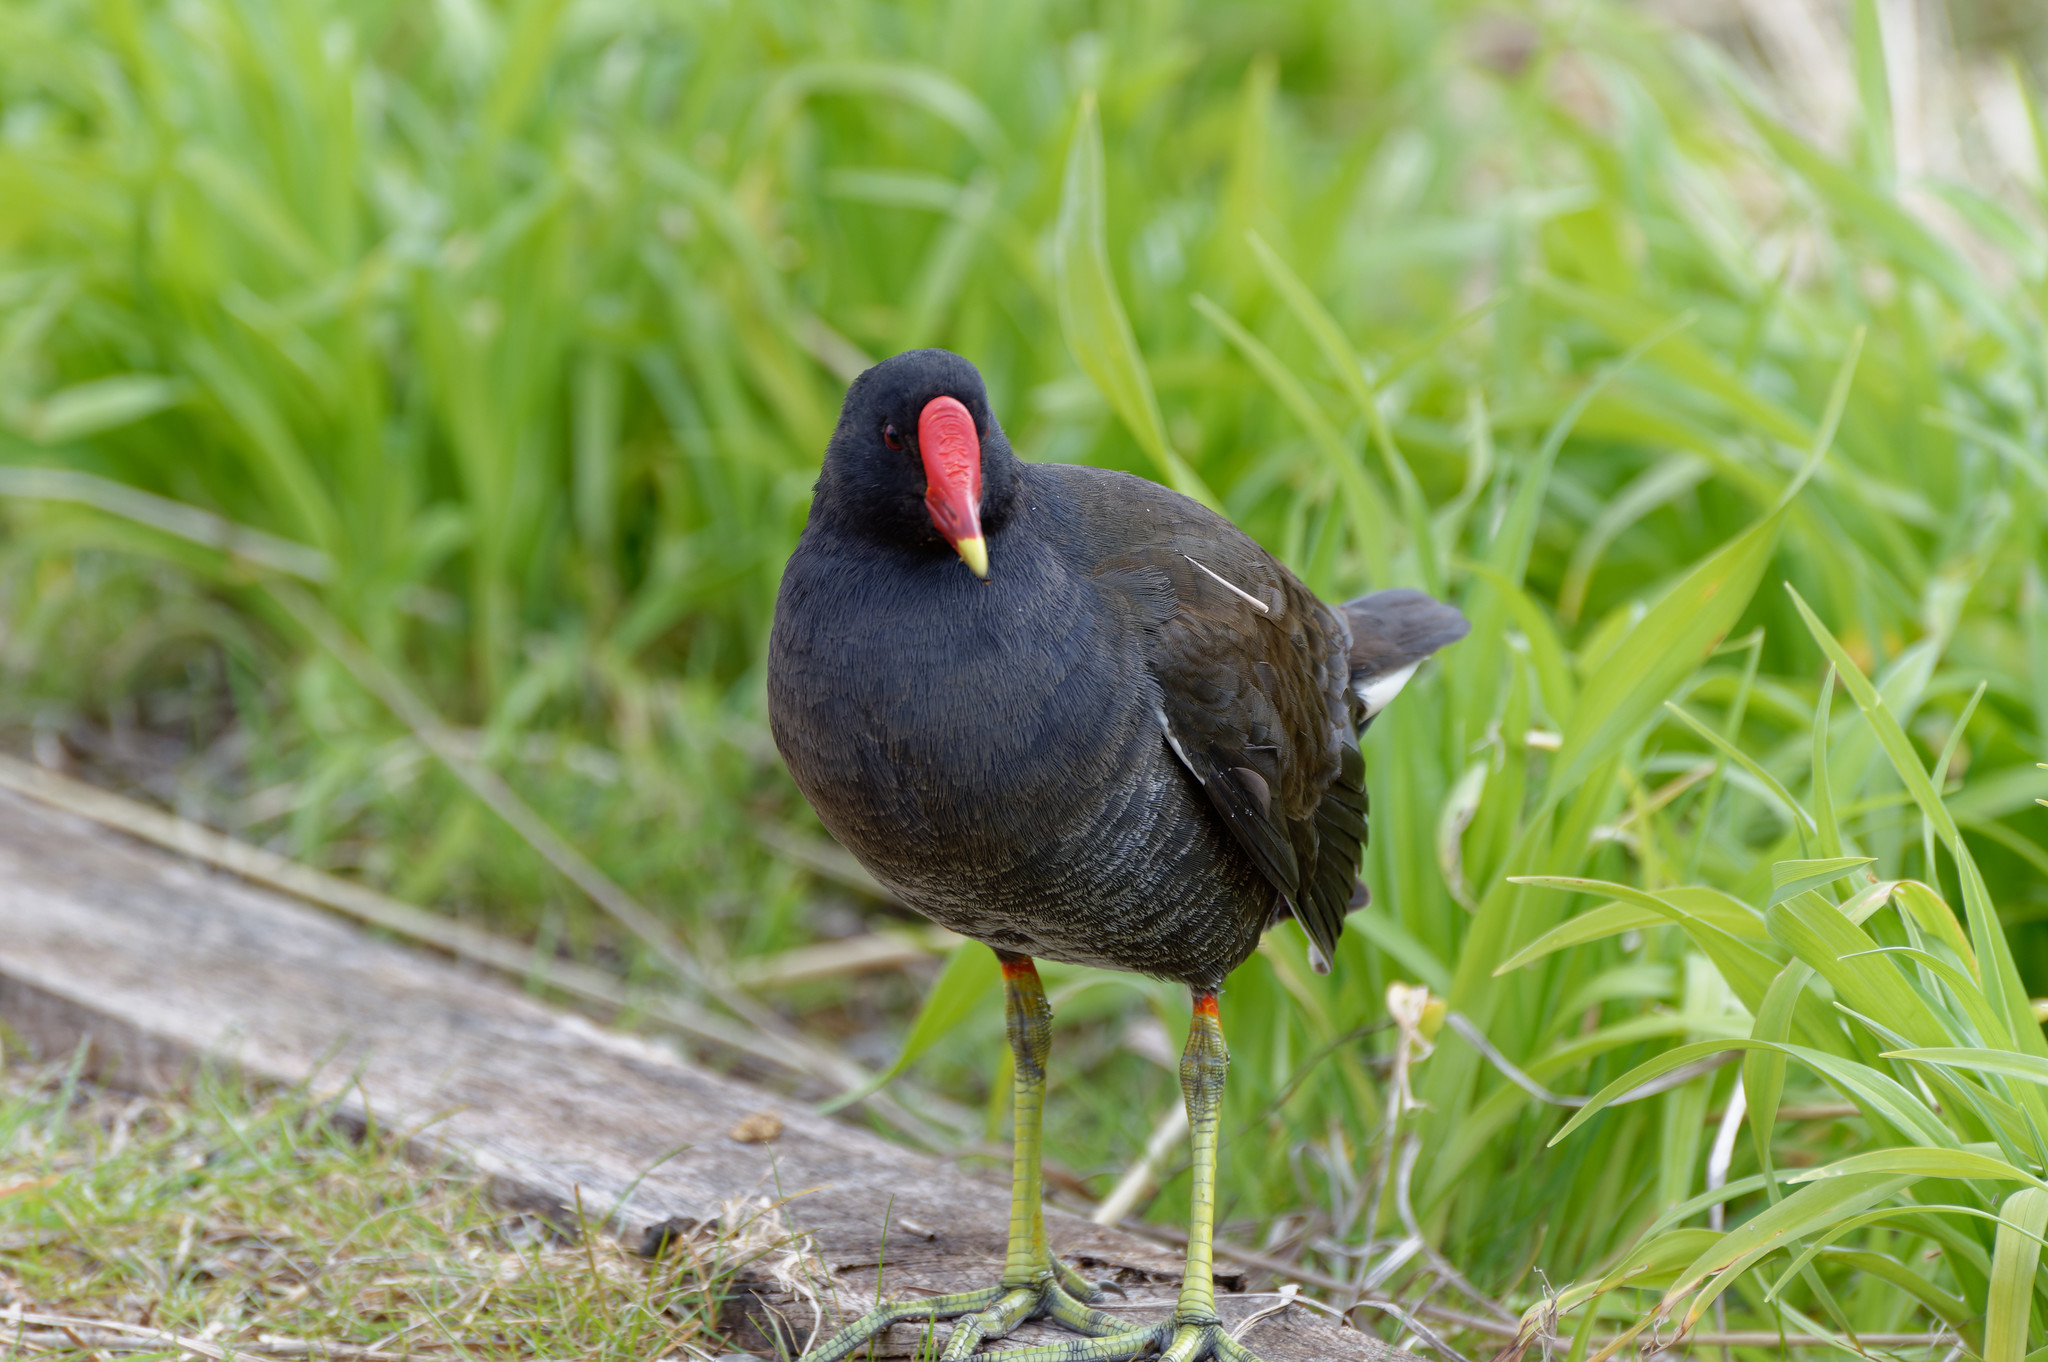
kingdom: Animalia
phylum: Chordata
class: Aves
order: Gruiformes
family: Rallidae
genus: Gallinula
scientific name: Gallinula chloropus
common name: Common moorhen
